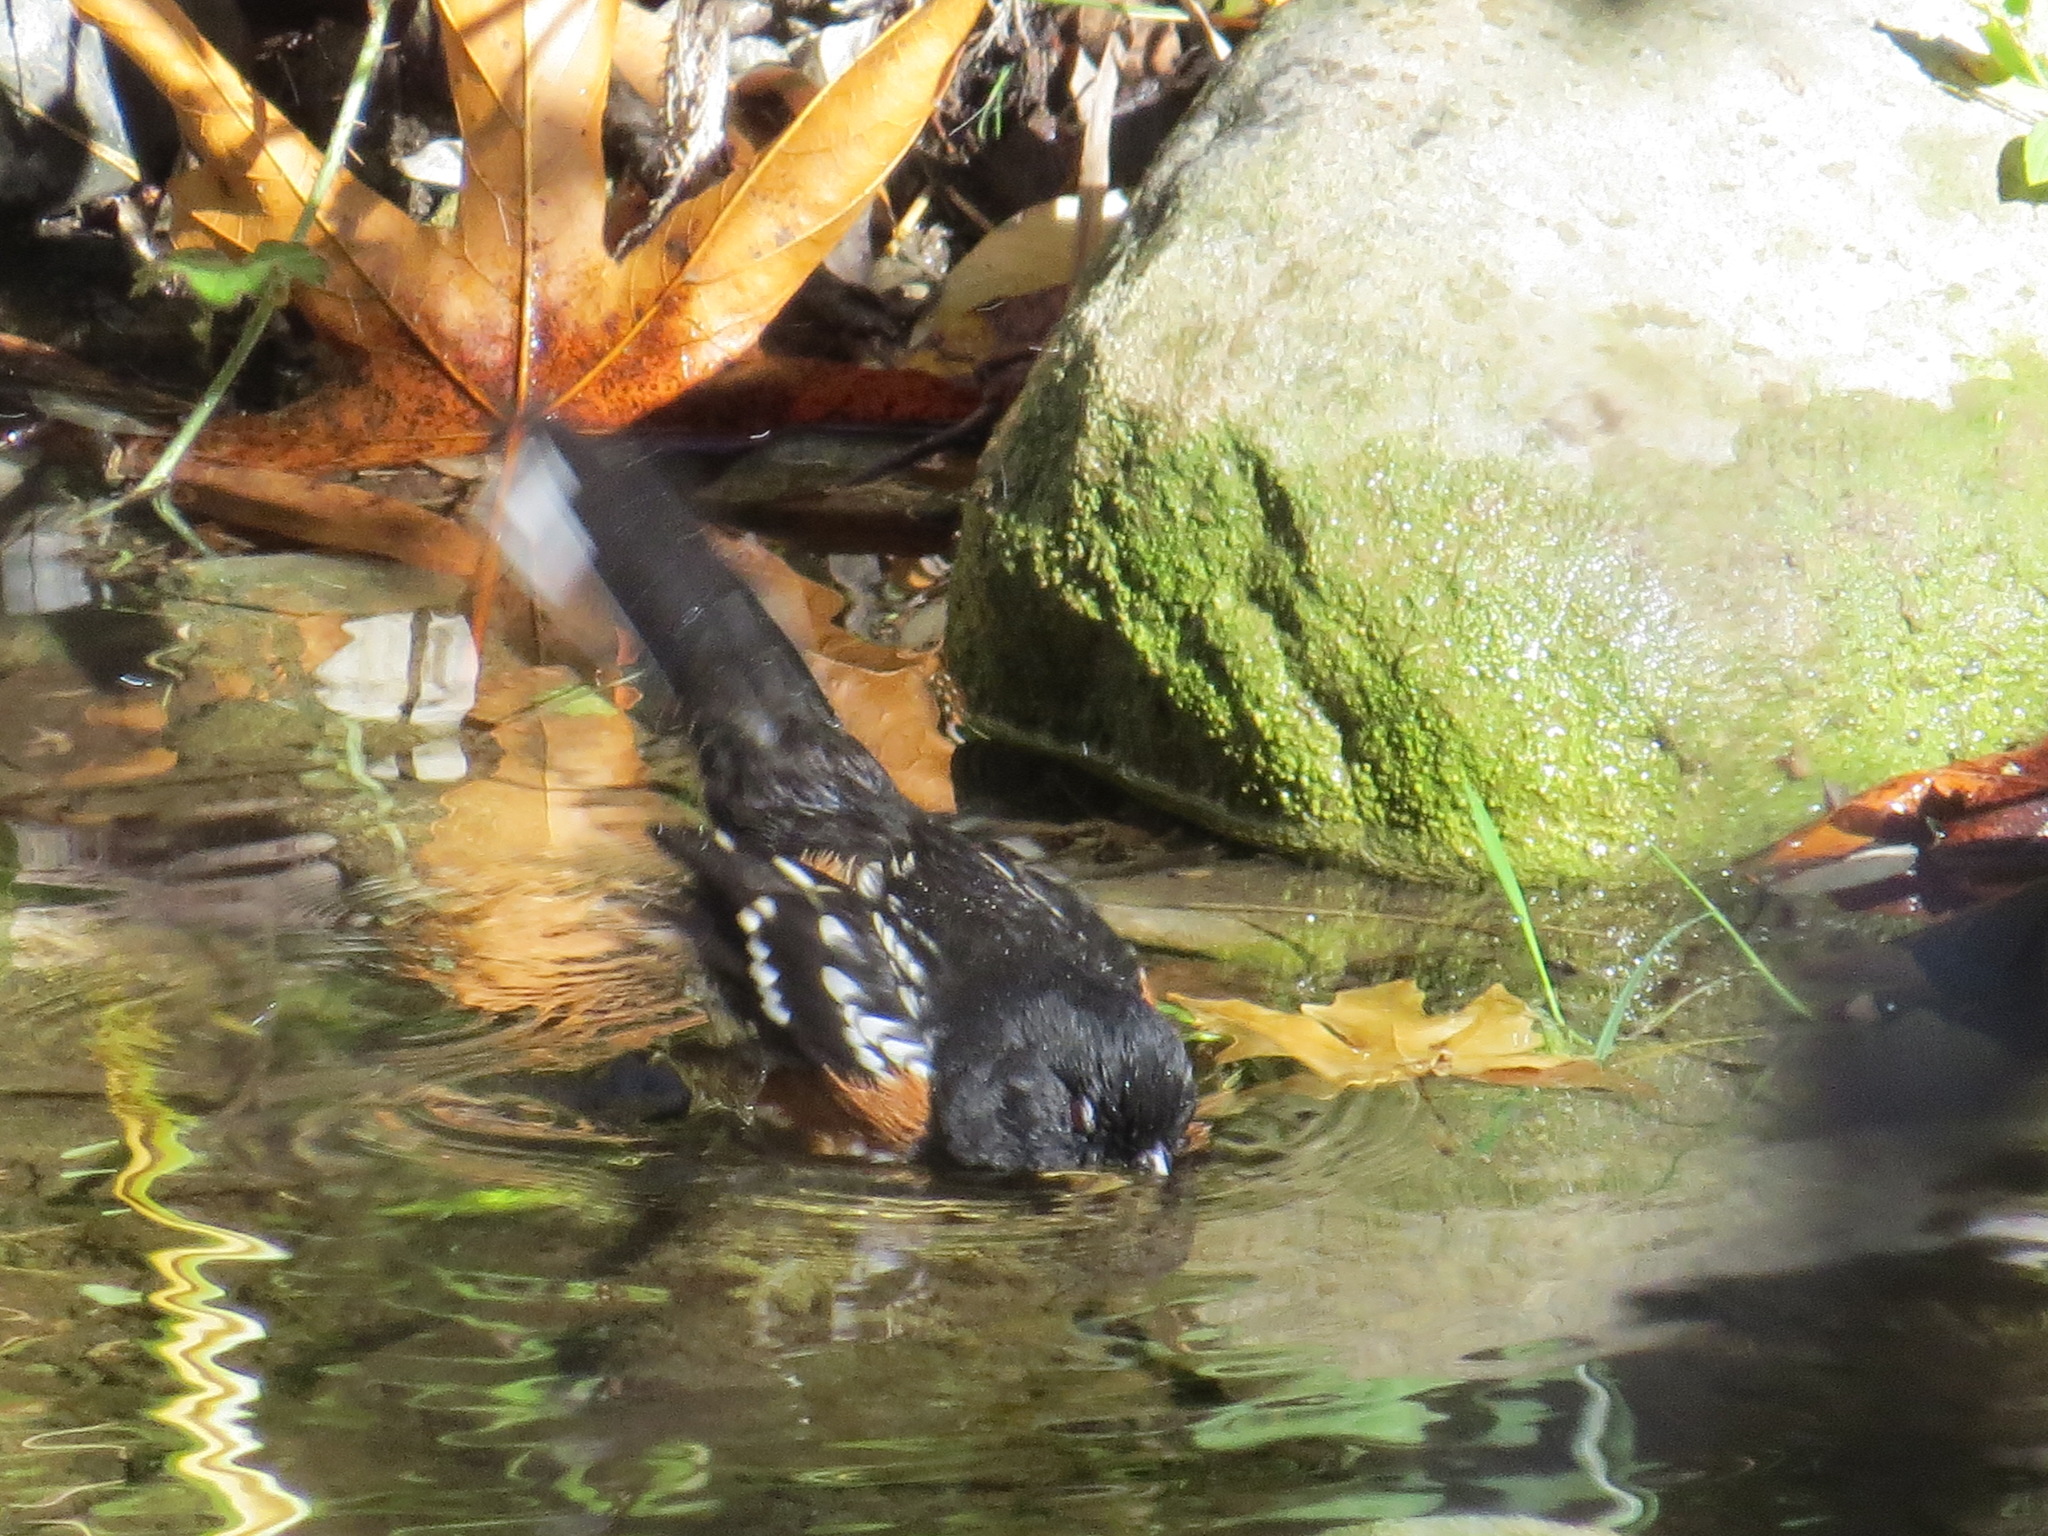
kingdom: Animalia
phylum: Chordata
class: Aves
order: Passeriformes
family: Passerellidae
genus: Pipilo
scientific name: Pipilo maculatus
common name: Spotted towhee
